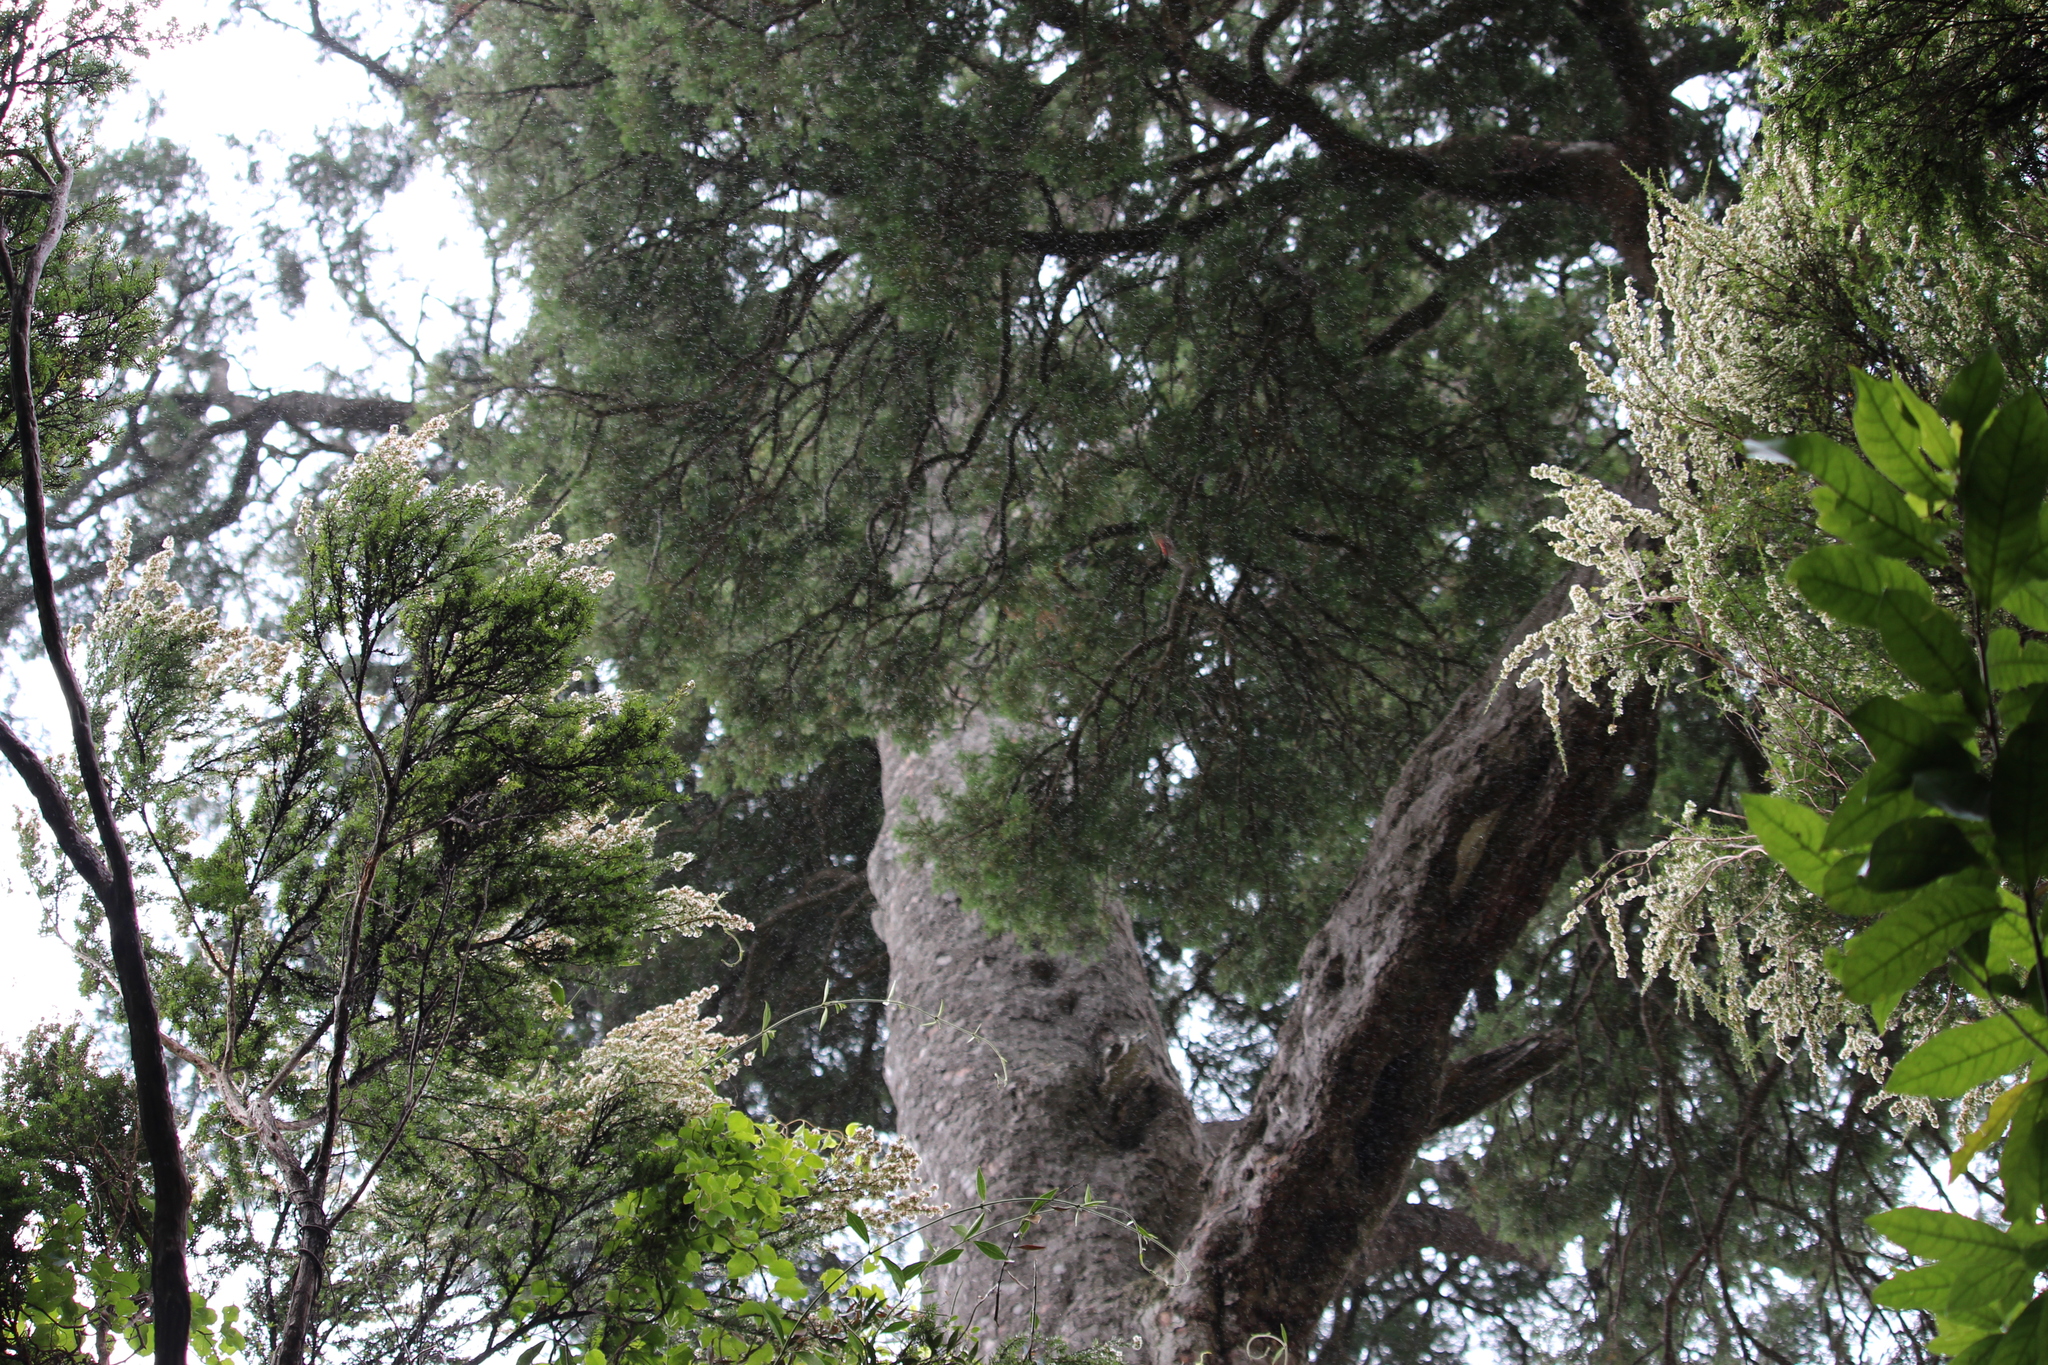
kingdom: Plantae
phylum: Tracheophyta
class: Pinopsida
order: Pinales
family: Podocarpaceae
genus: Dacrycarpus
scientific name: Dacrycarpus dacrydioides
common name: White pine
